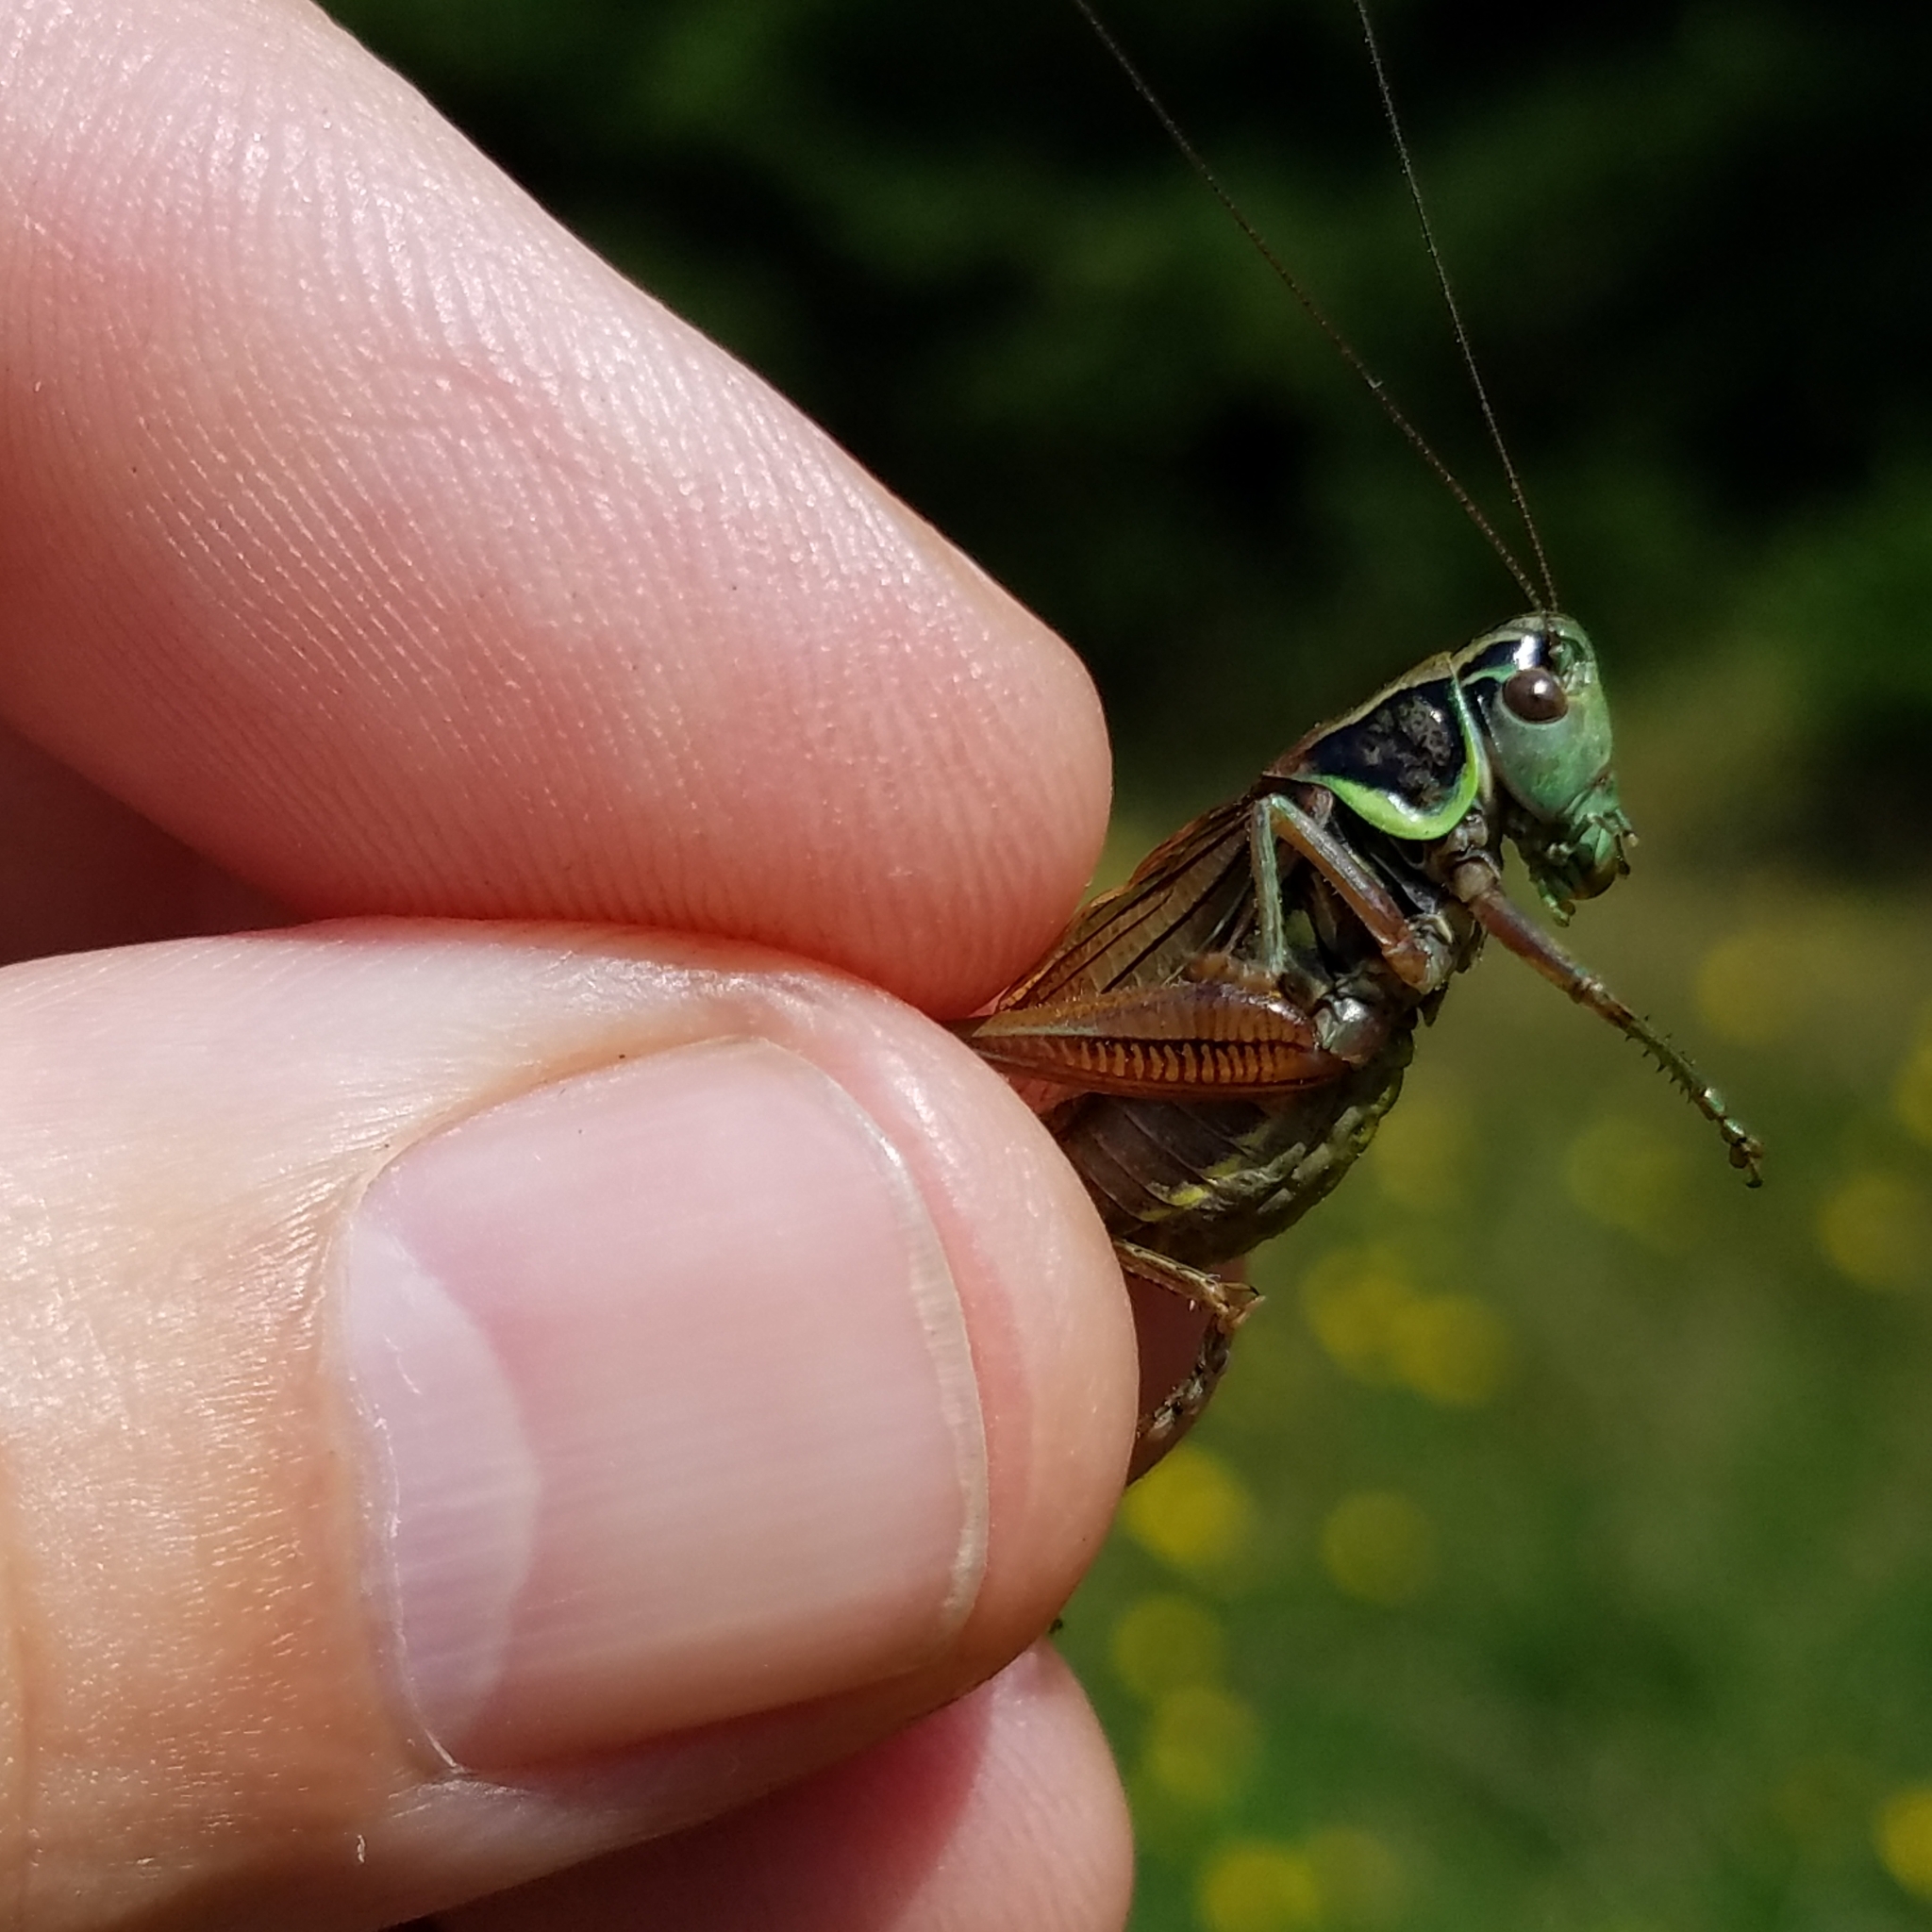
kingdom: Animalia
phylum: Arthropoda
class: Insecta
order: Orthoptera
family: Tettigoniidae
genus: Roeseliana
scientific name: Roeseliana roeselii
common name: Roesel's bush cricket
